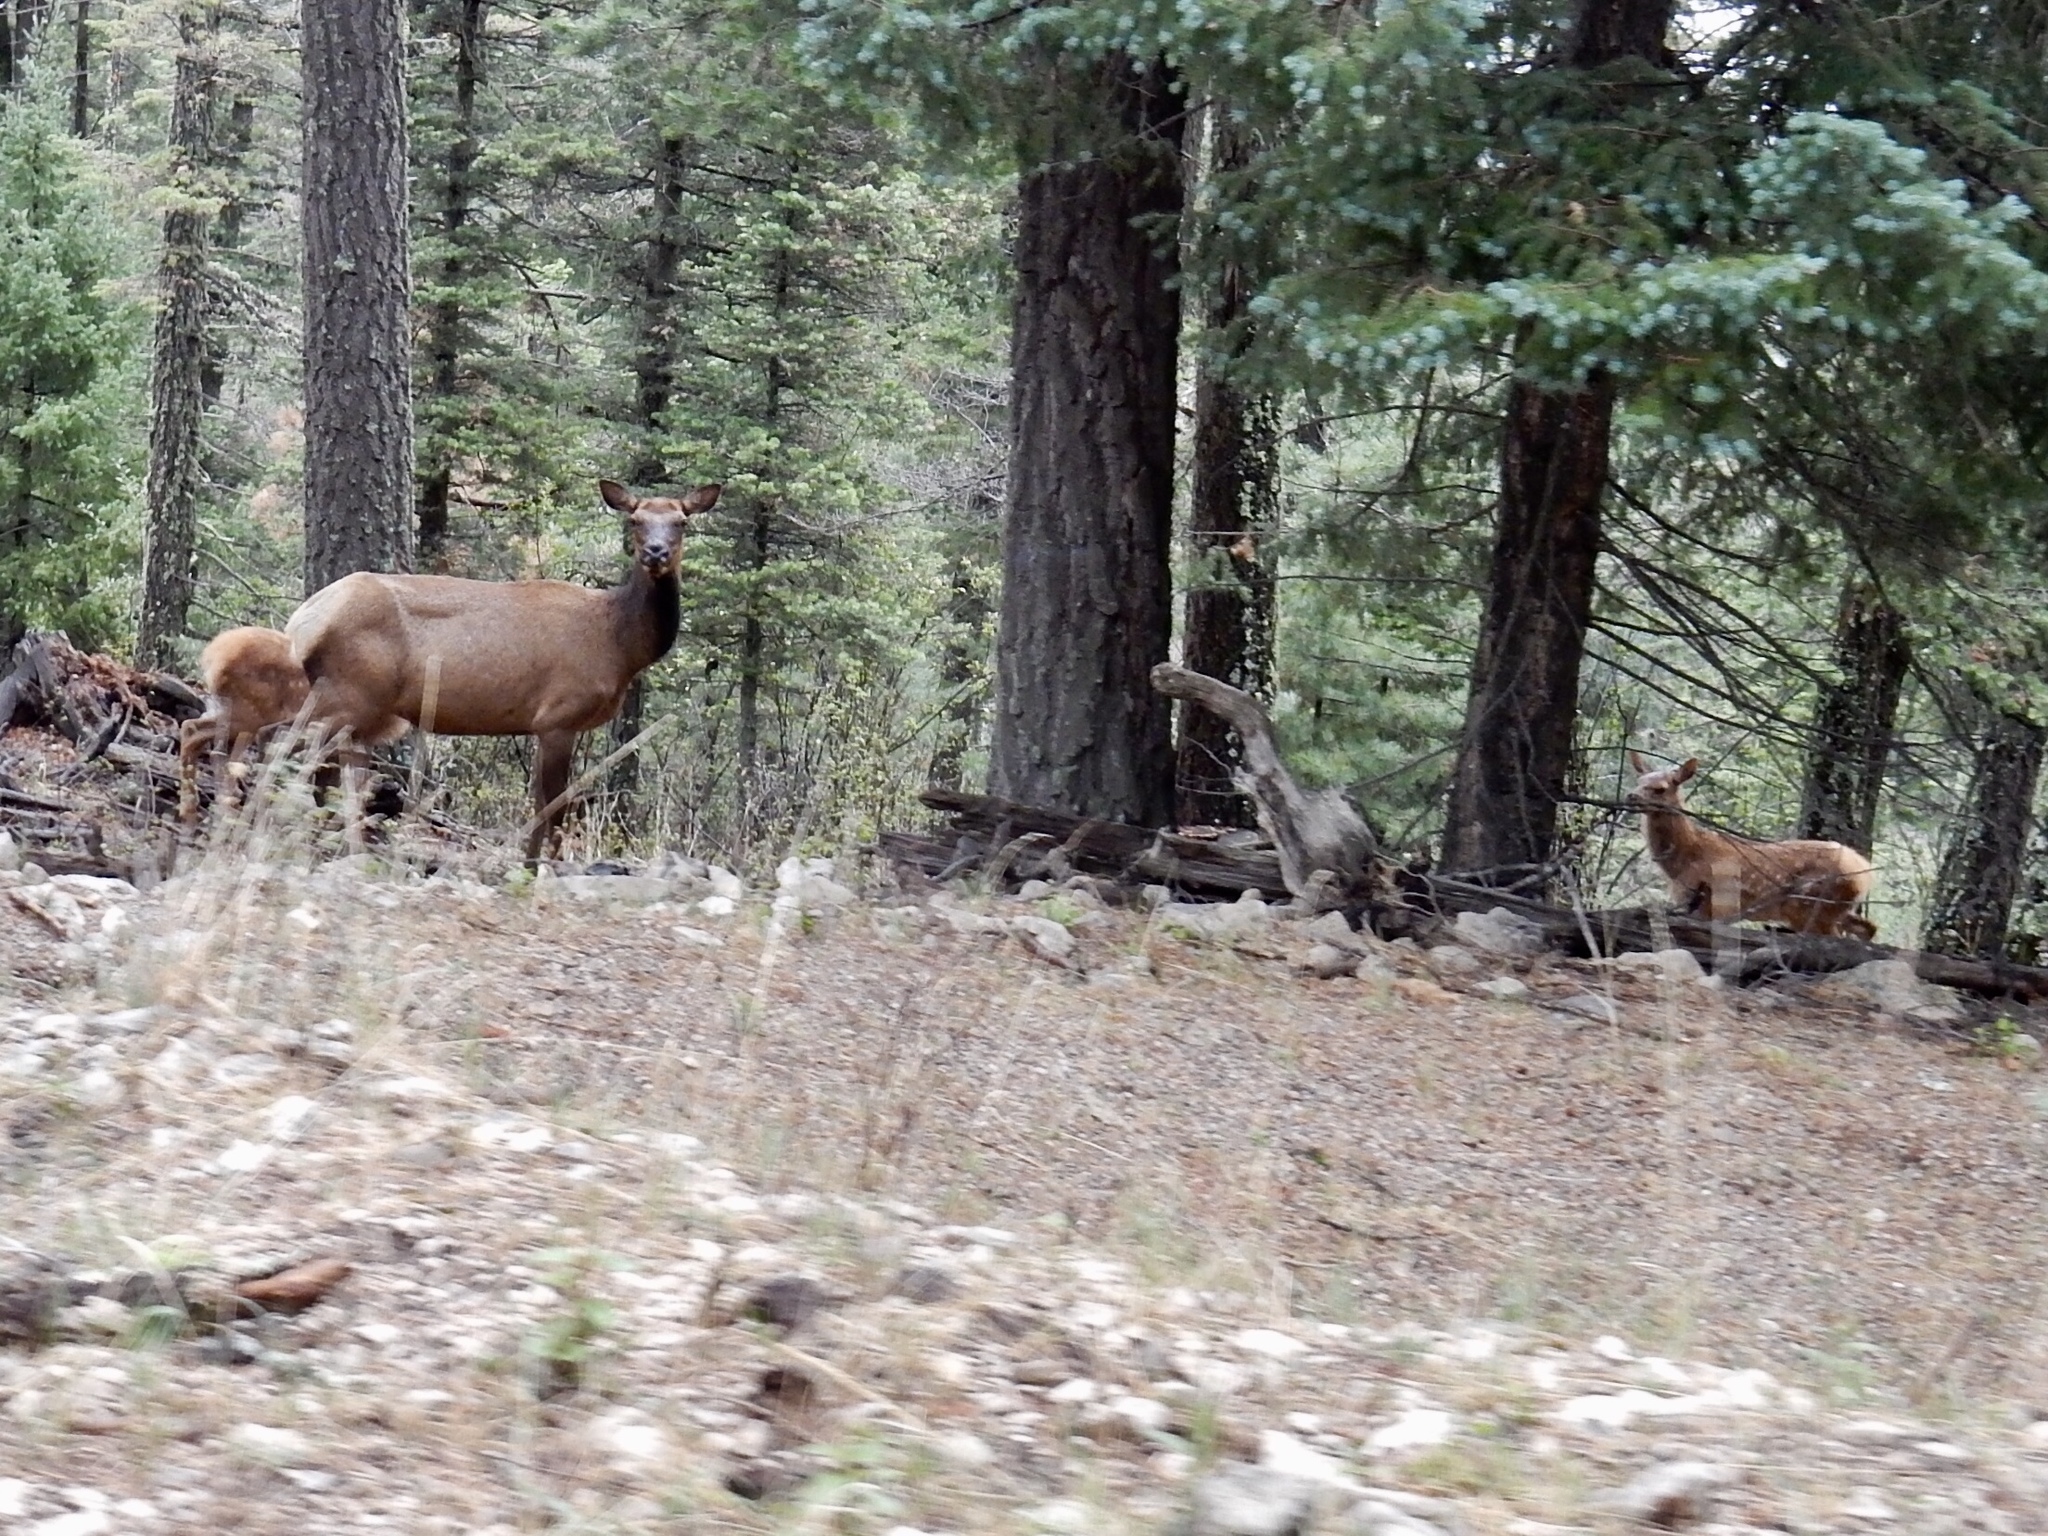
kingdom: Animalia
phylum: Chordata
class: Mammalia
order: Artiodactyla
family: Cervidae
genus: Cervus
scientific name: Cervus elaphus
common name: Red deer
